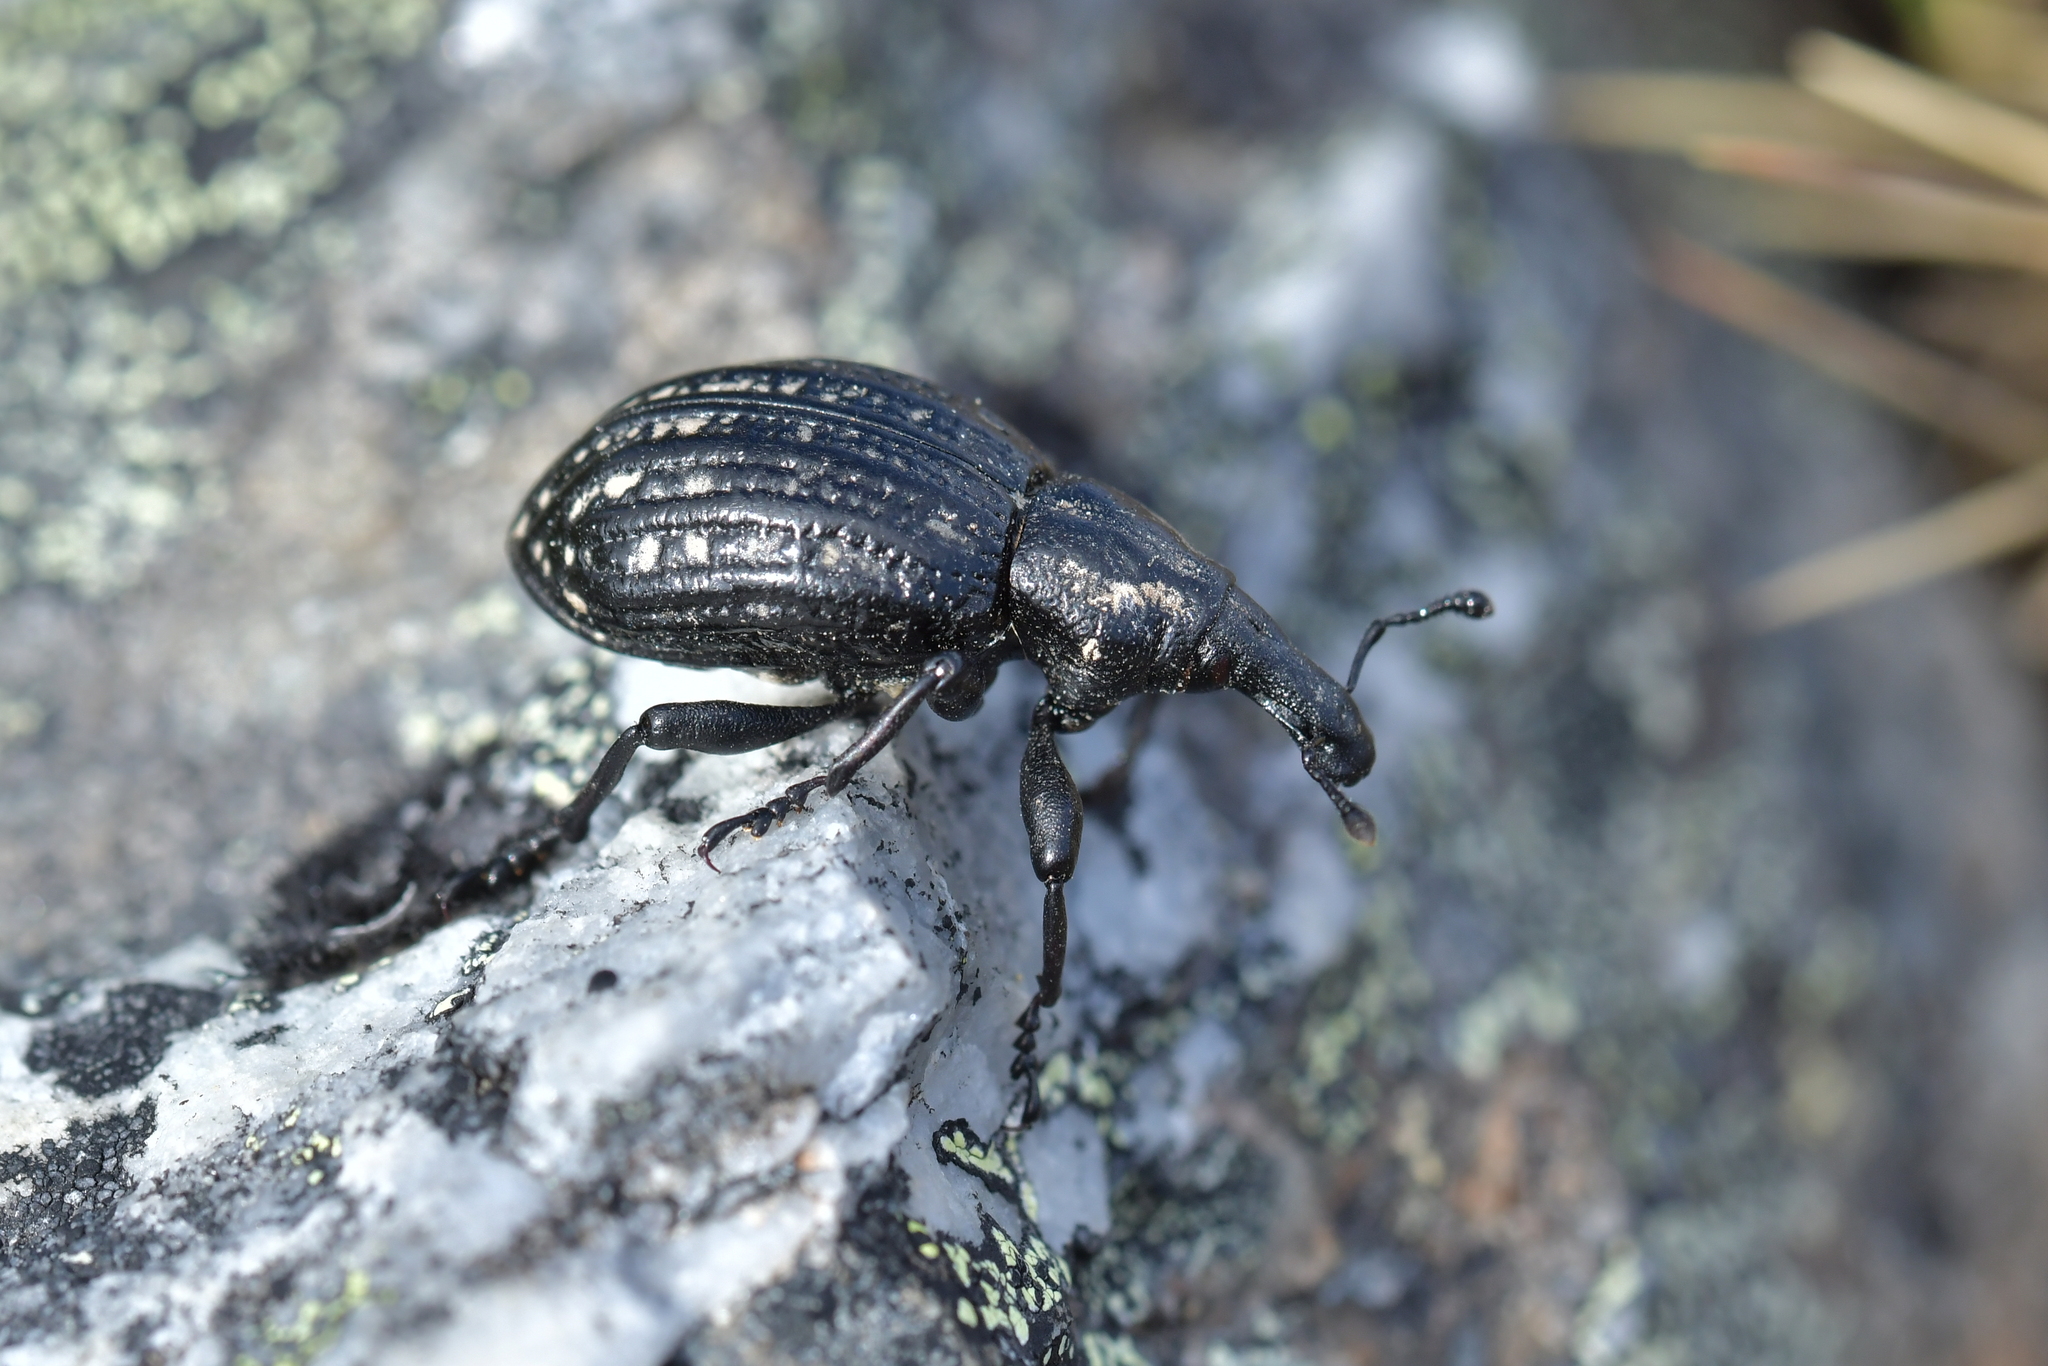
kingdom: Animalia
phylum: Arthropoda
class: Insecta
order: Coleoptera
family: Curculionidae
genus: Lyperobius
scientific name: Lyperobius hudsoni
